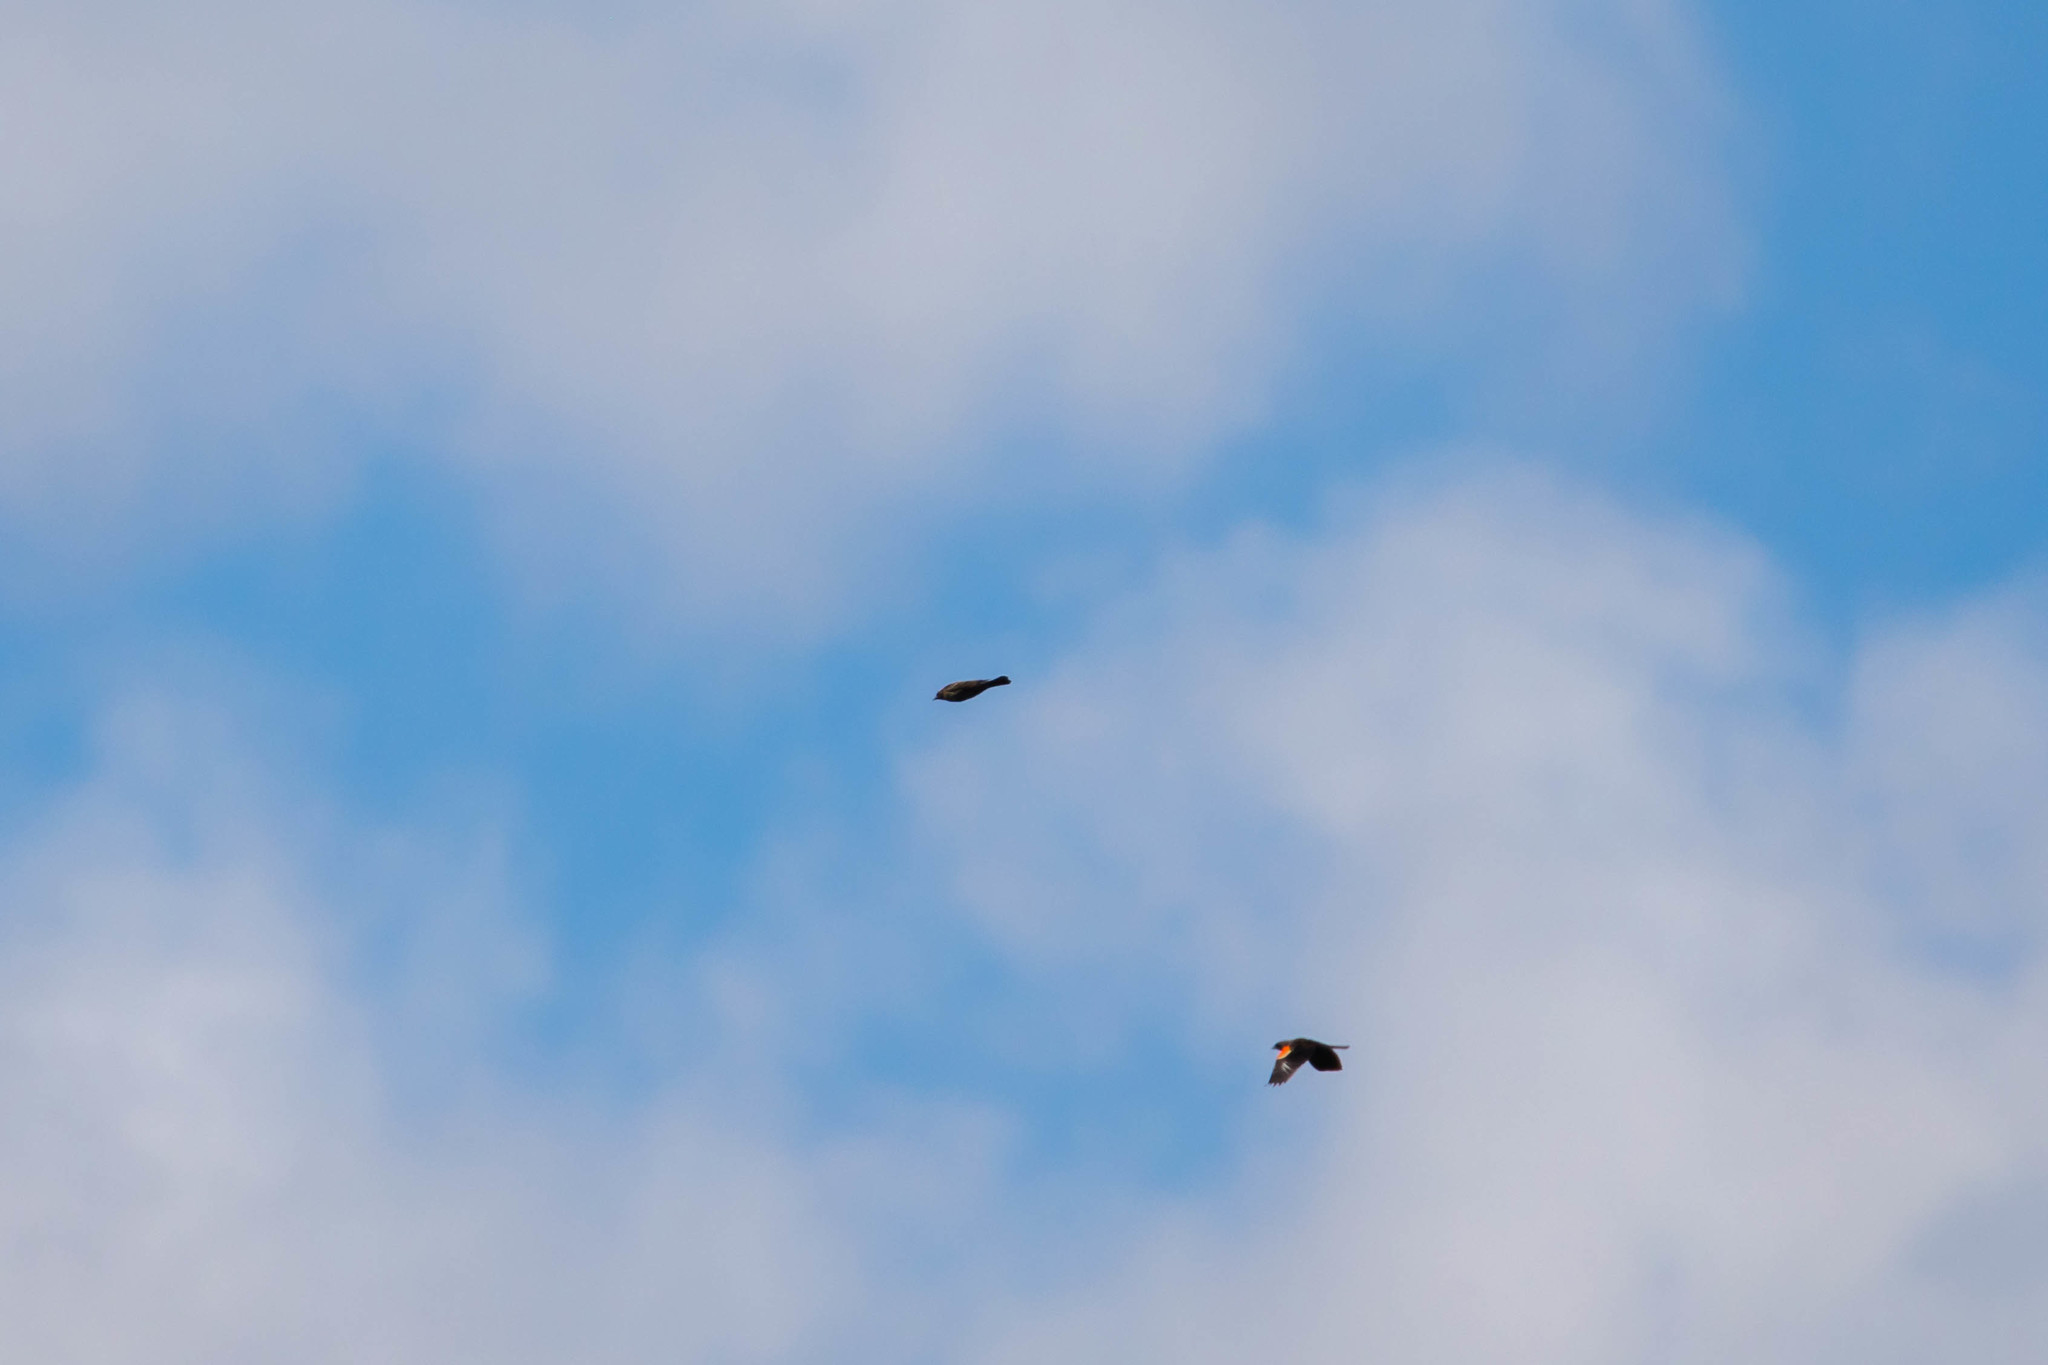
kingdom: Animalia
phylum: Chordata
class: Aves
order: Passeriformes
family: Icteridae
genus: Agelaius
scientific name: Agelaius phoeniceus
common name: Red-winged blackbird
